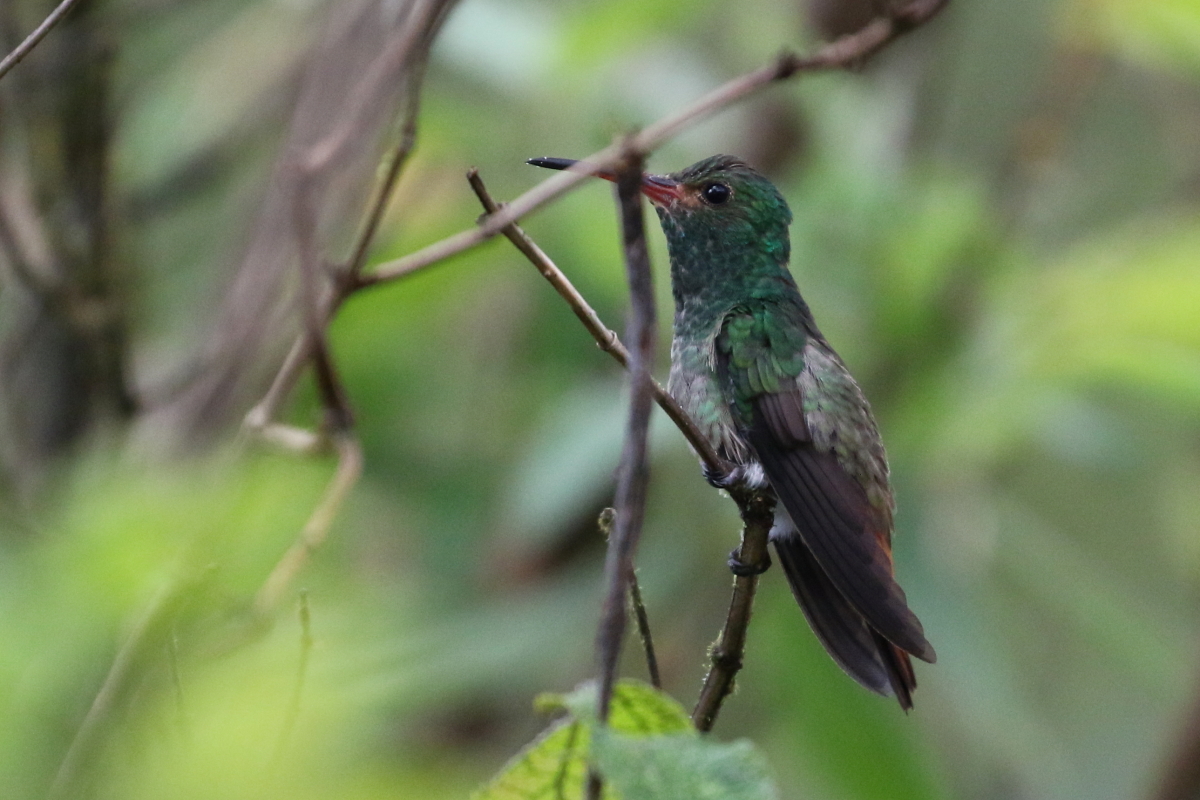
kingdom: Animalia
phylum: Chordata
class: Aves
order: Apodiformes
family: Trochilidae
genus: Amazilia
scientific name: Amazilia tzacatl
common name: Rufous-tailed hummingbird
